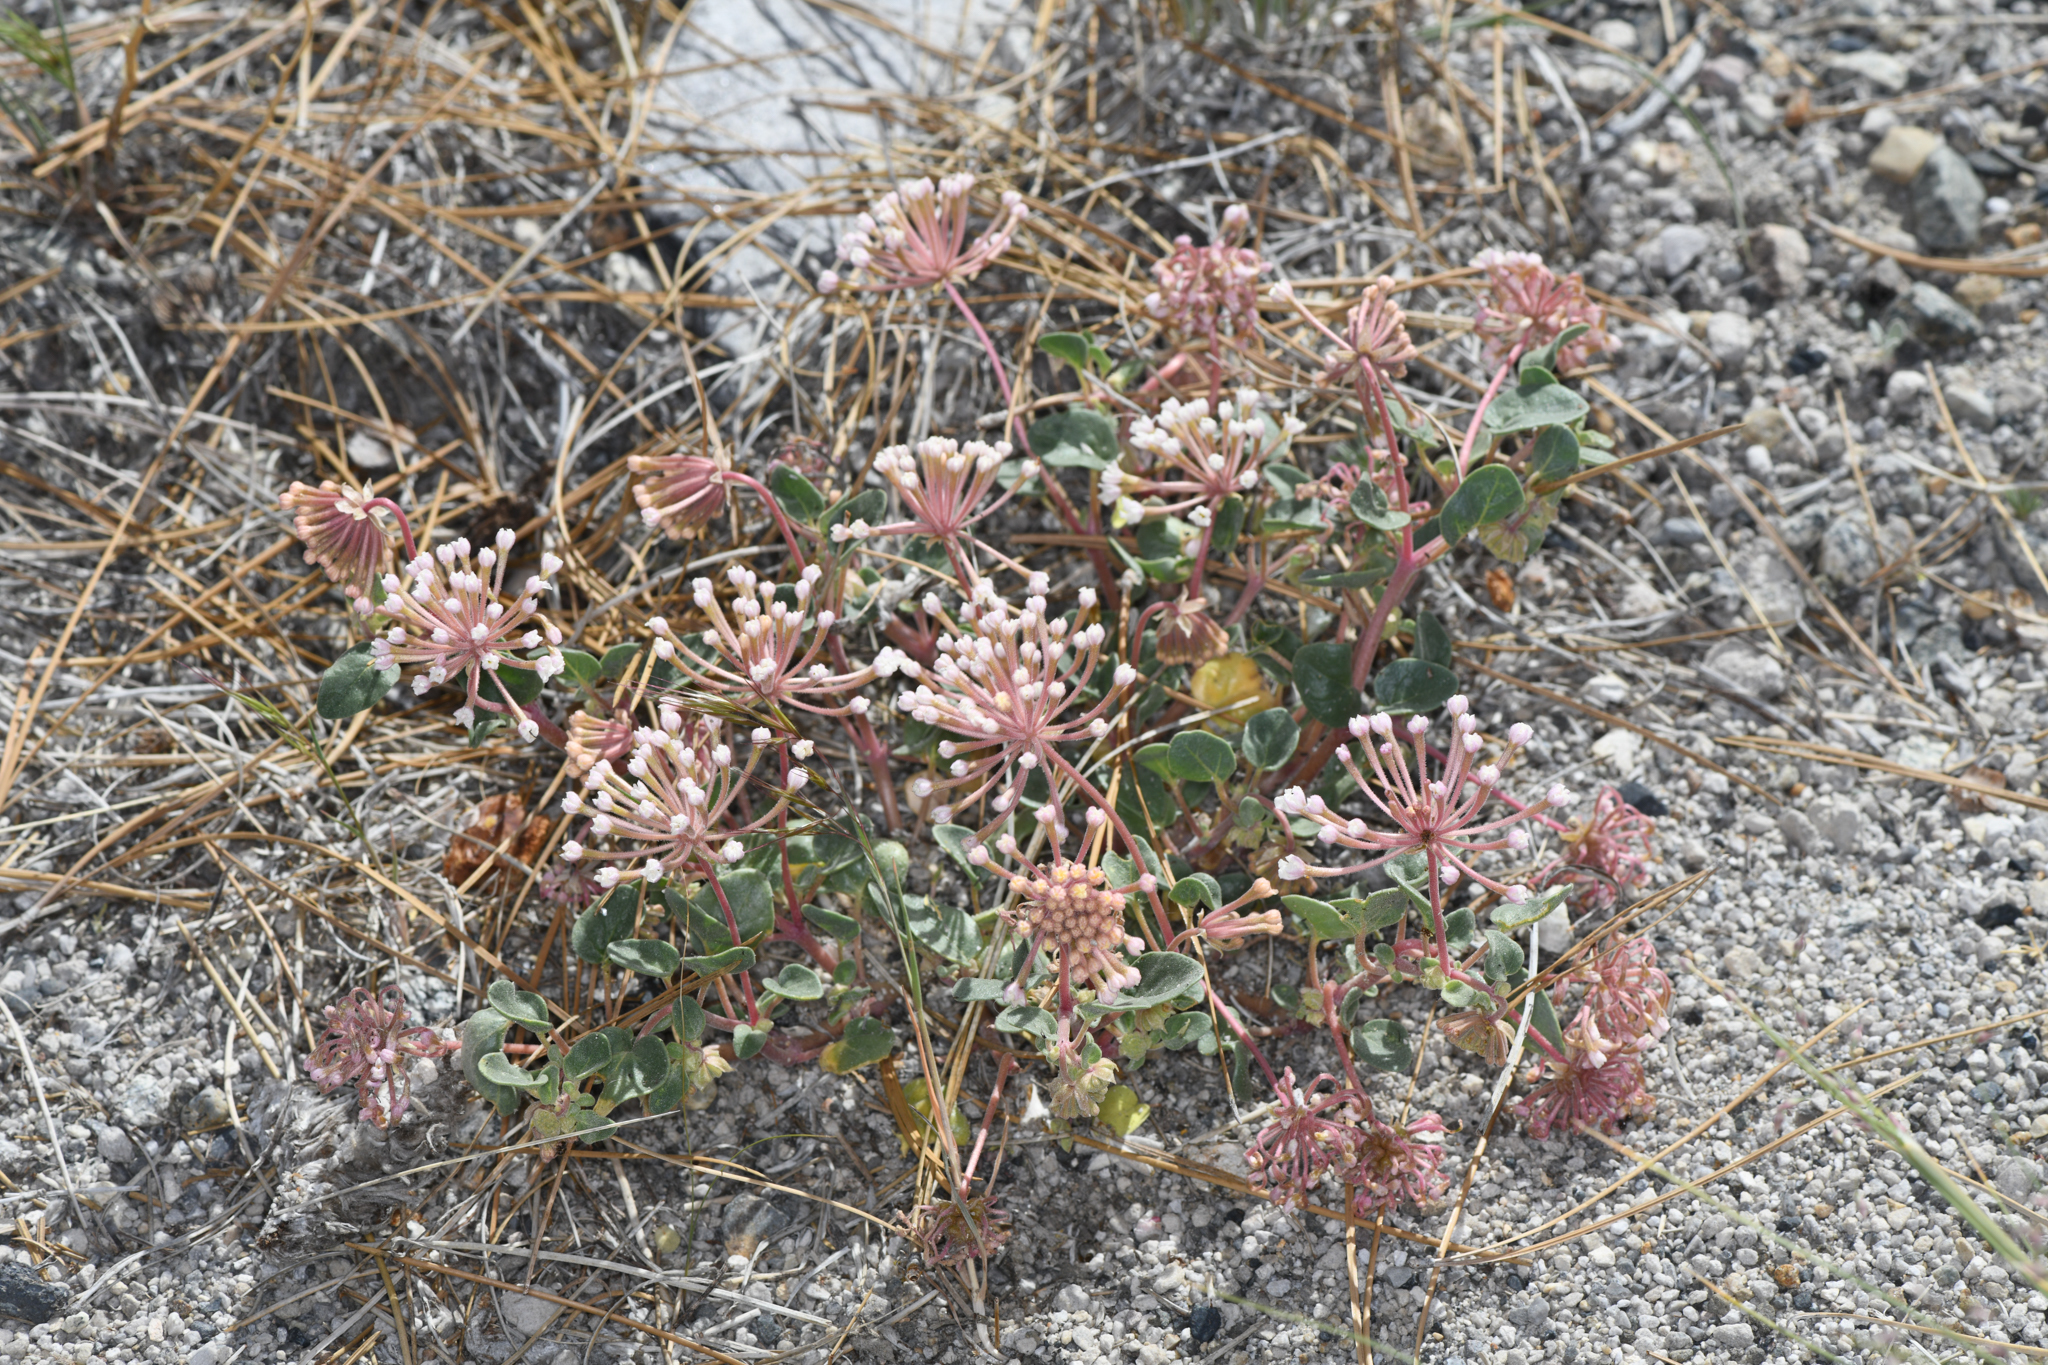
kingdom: Plantae
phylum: Tracheophyta
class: Magnoliopsida
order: Caryophyllales
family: Nyctaginaceae
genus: Abronia
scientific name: Abronia turbinata
